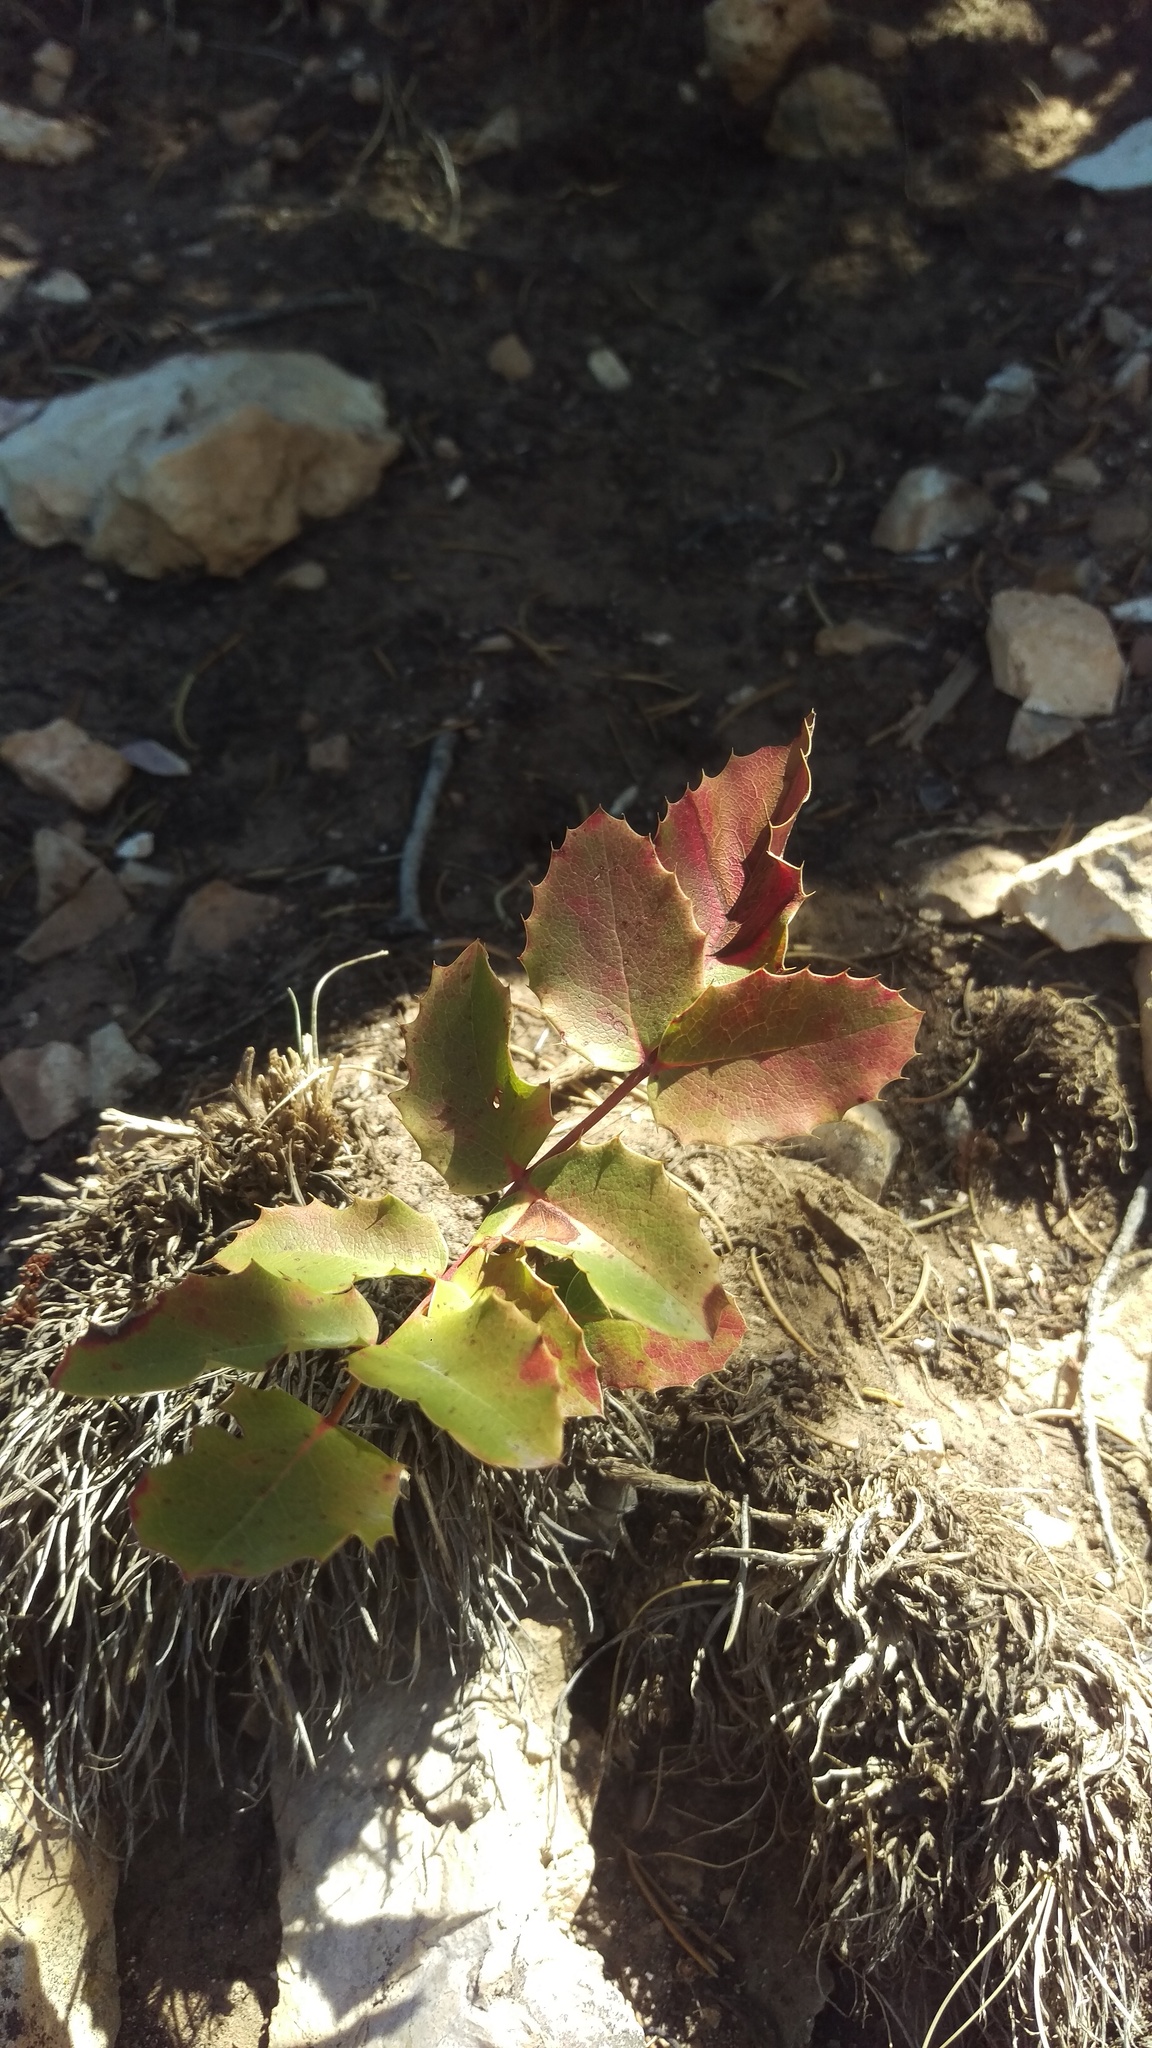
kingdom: Plantae
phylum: Tracheophyta
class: Magnoliopsida
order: Ranunculales
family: Berberidaceae
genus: Mahonia
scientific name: Mahonia repens
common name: Creeping oregon-grape
